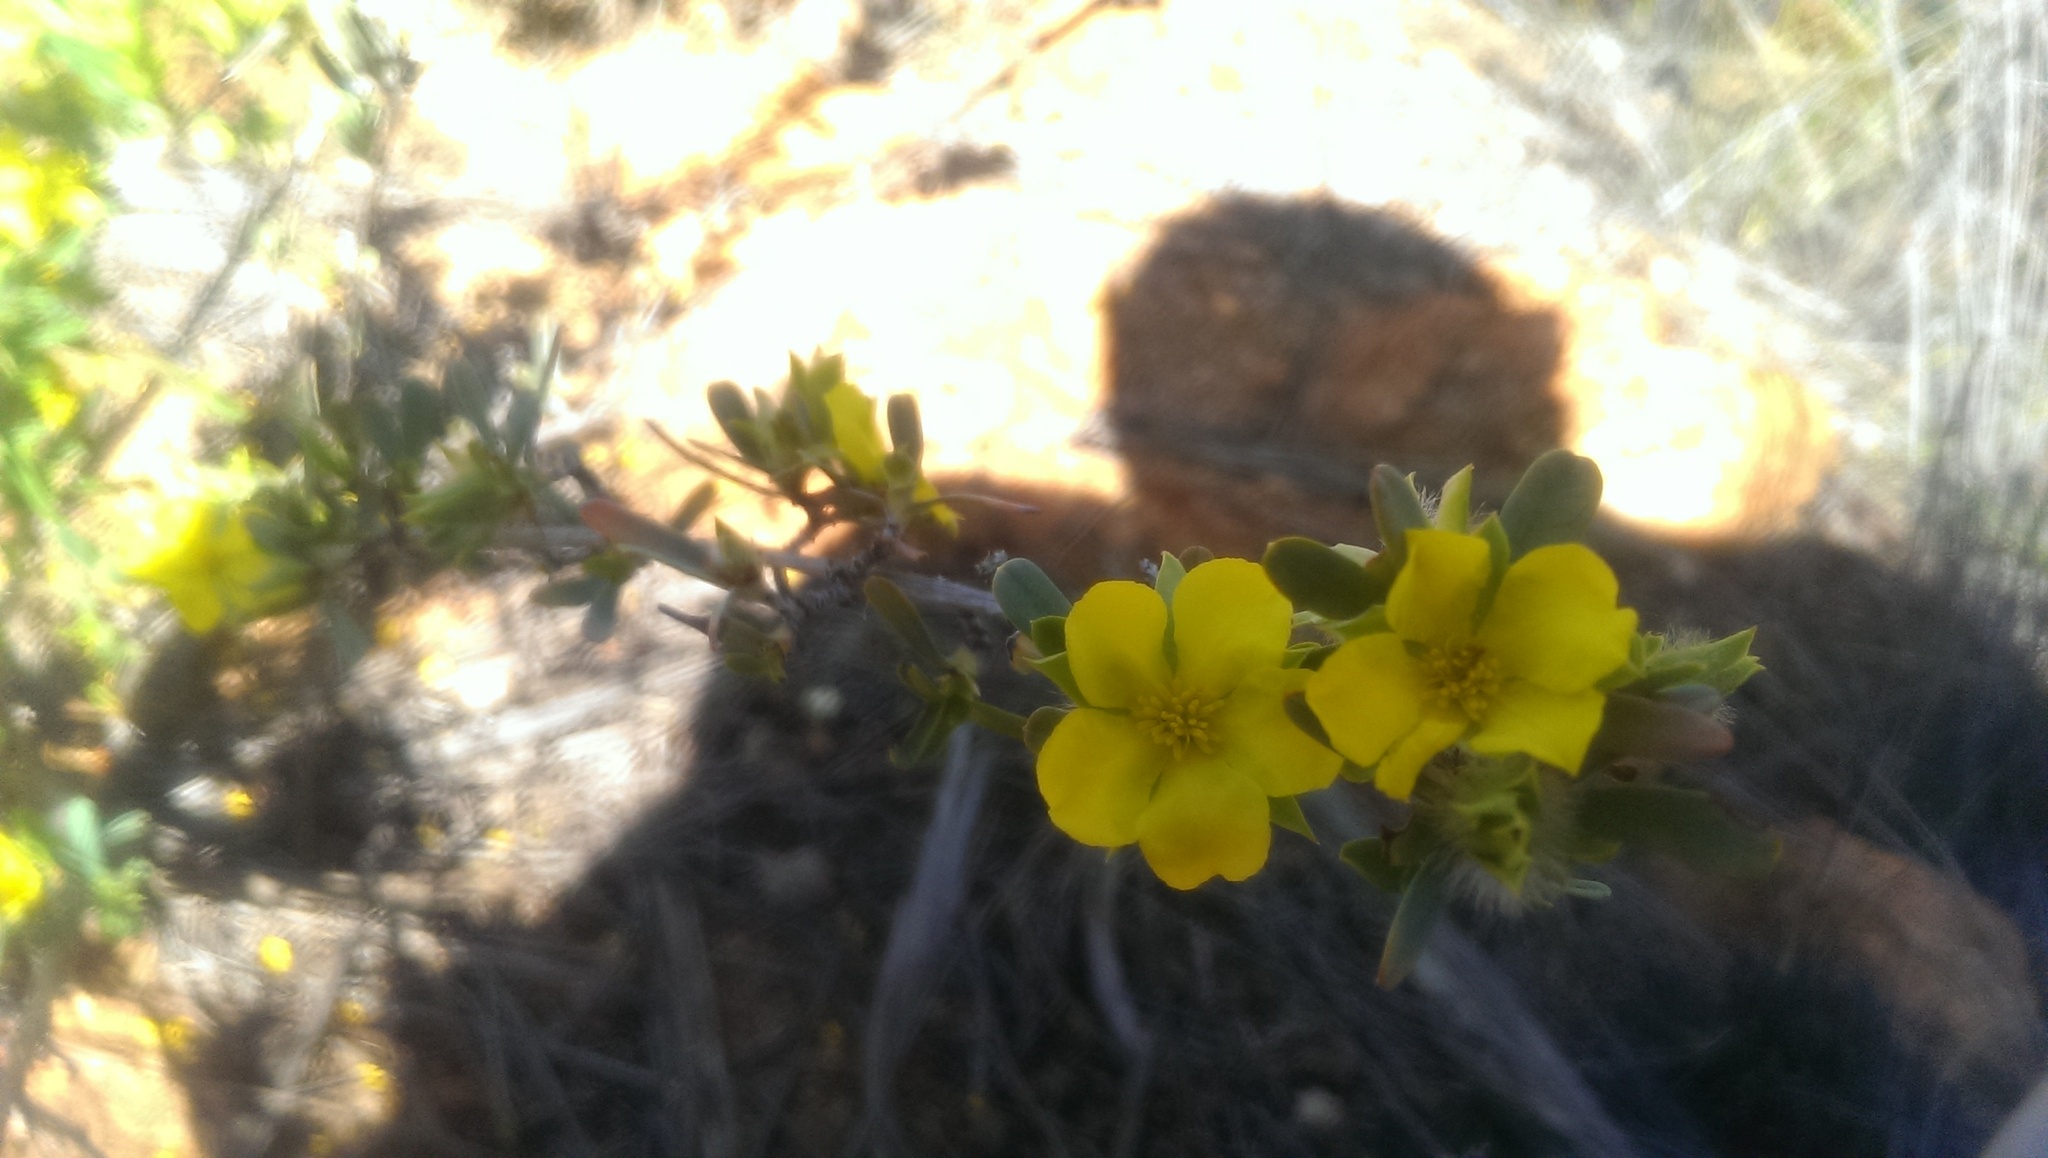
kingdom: Plantae
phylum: Tracheophyta
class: Magnoliopsida
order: Dilleniales
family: Dilleniaceae
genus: Hibbertia
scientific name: Hibbertia glomerosa
